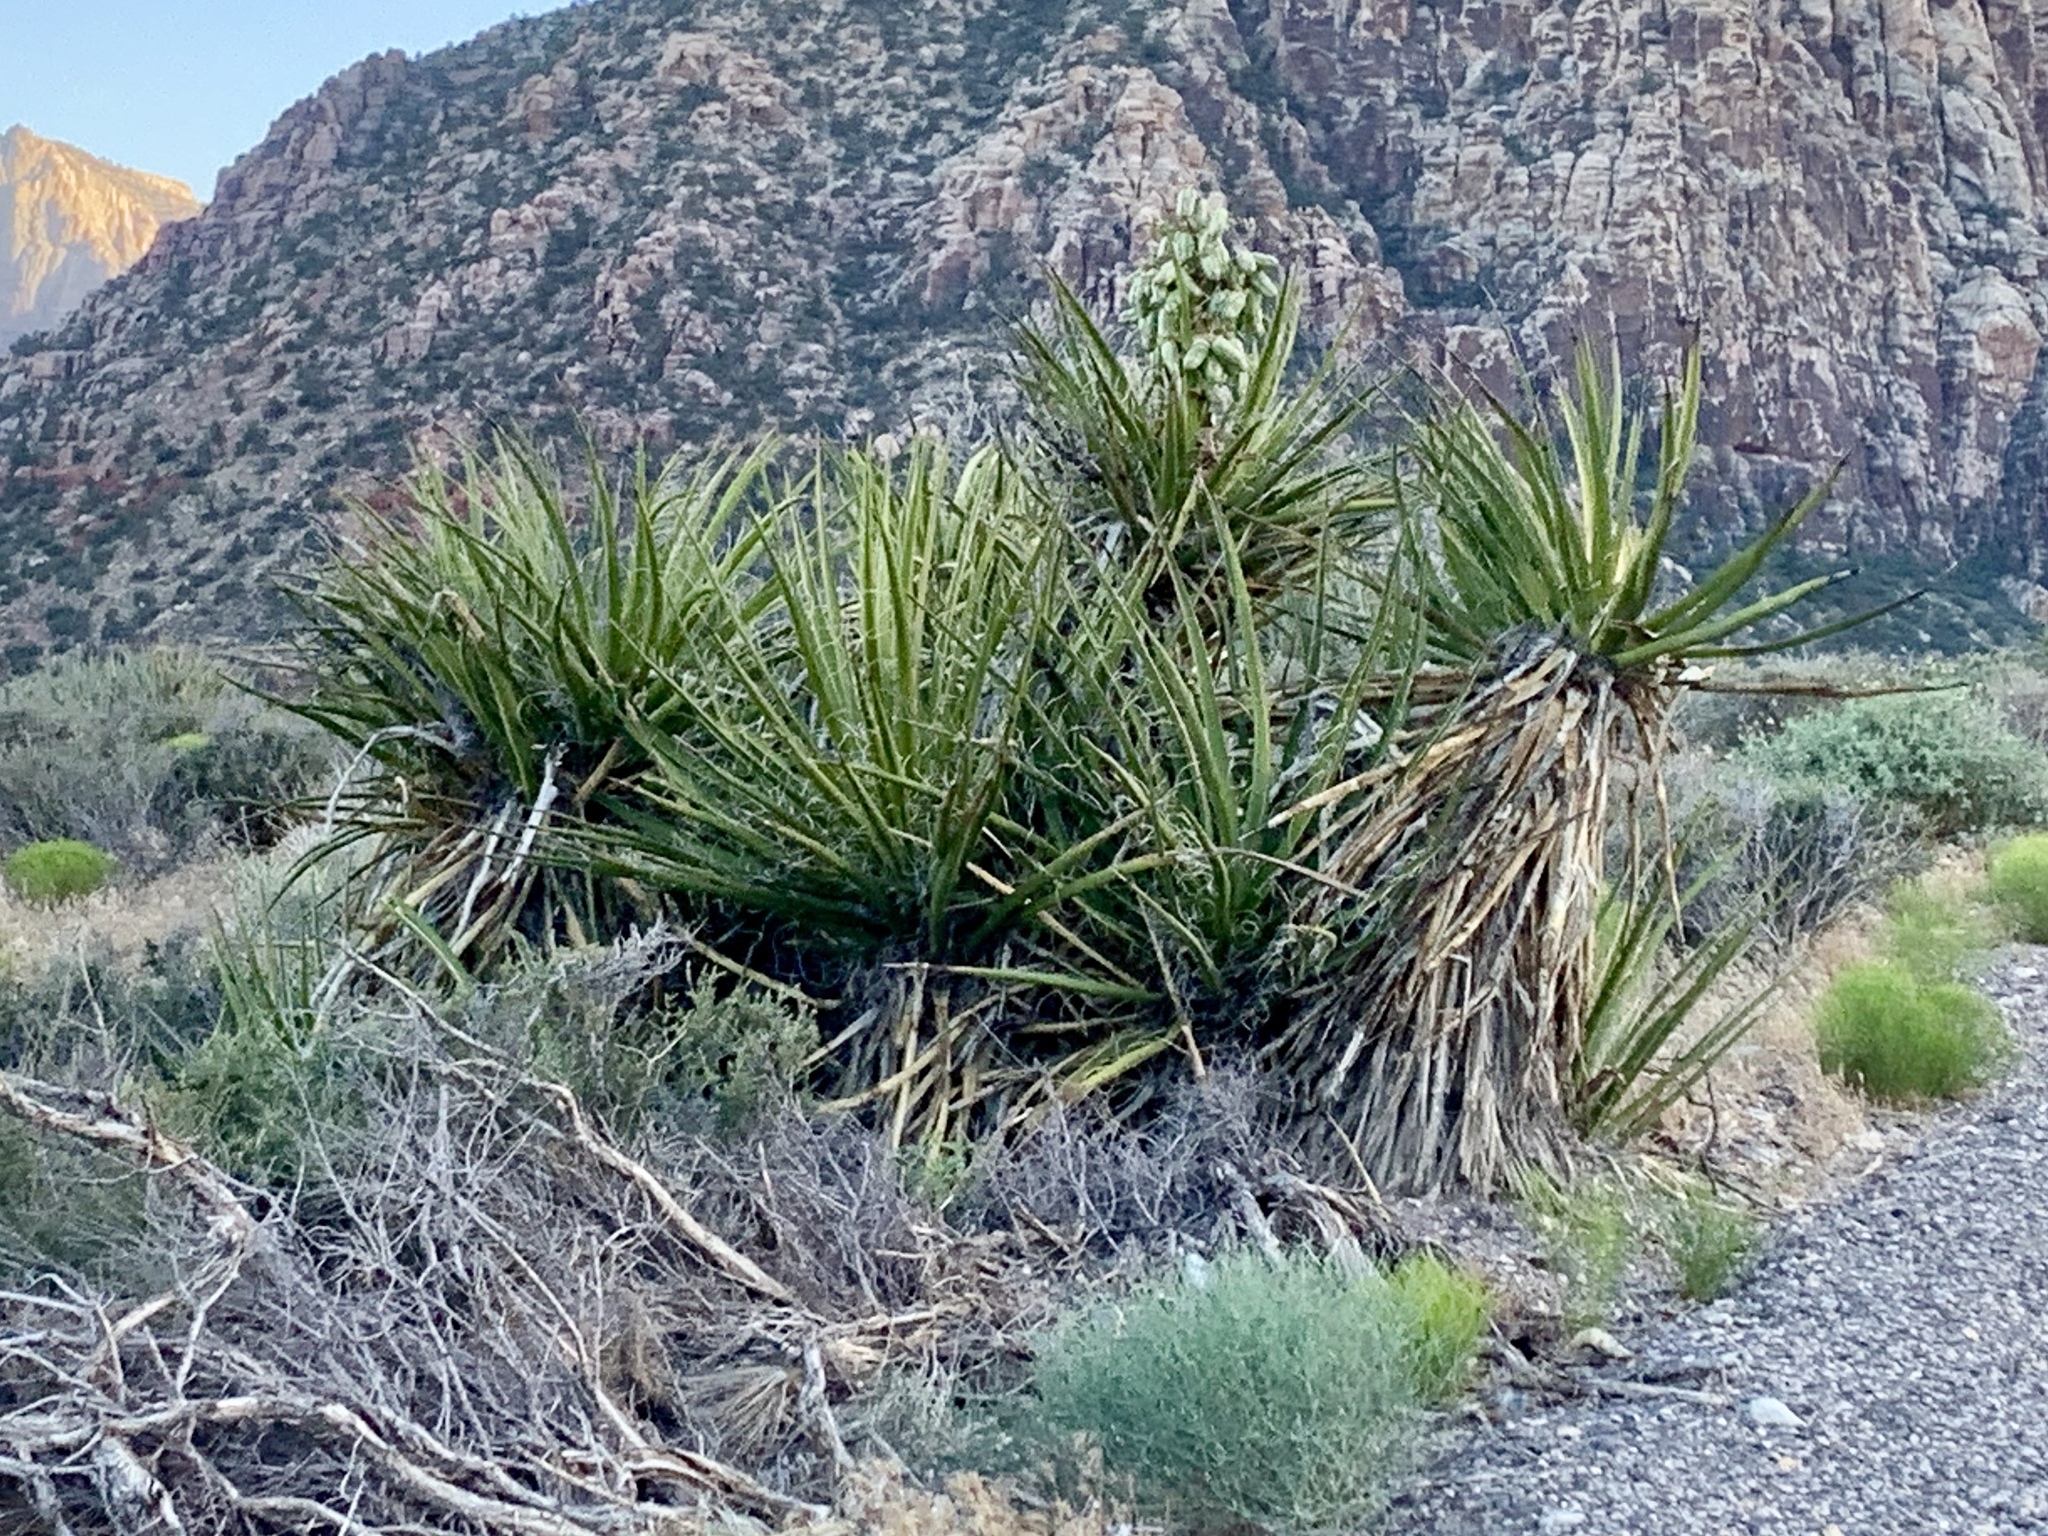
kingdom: Plantae
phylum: Tracheophyta
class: Liliopsida
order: Asparagales
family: Asparagaceae
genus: Yucca
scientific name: Yucca schidigera
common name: Mojave yucca
